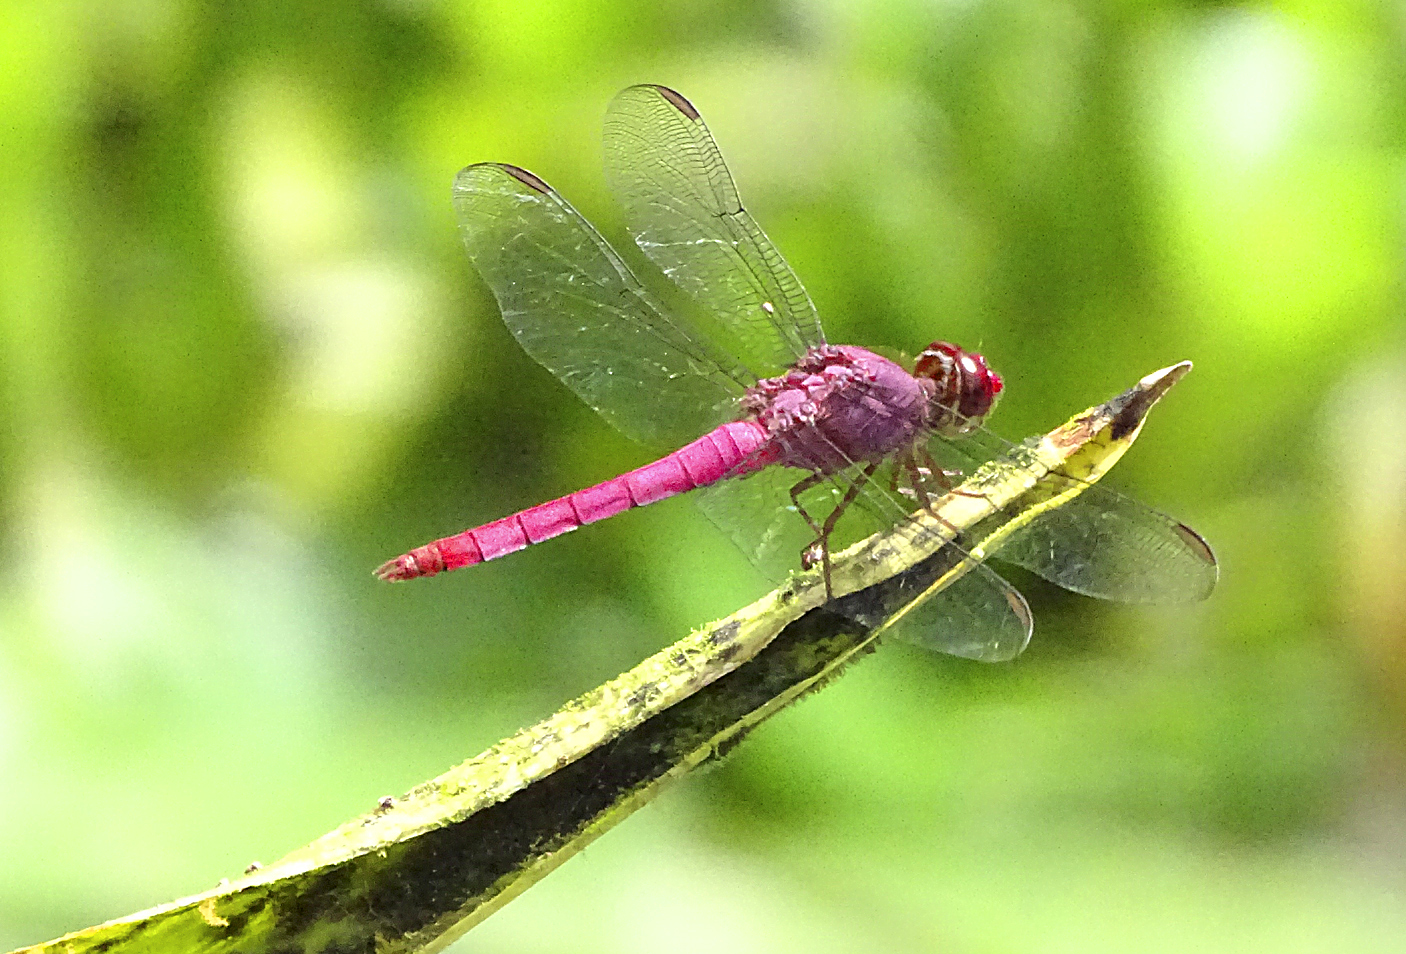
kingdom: Animalia
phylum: Arthropoda
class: Insecta
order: Odonata
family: Libellulidae
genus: Orthemis
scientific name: Orthemis discolor
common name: Carmine skimmer
